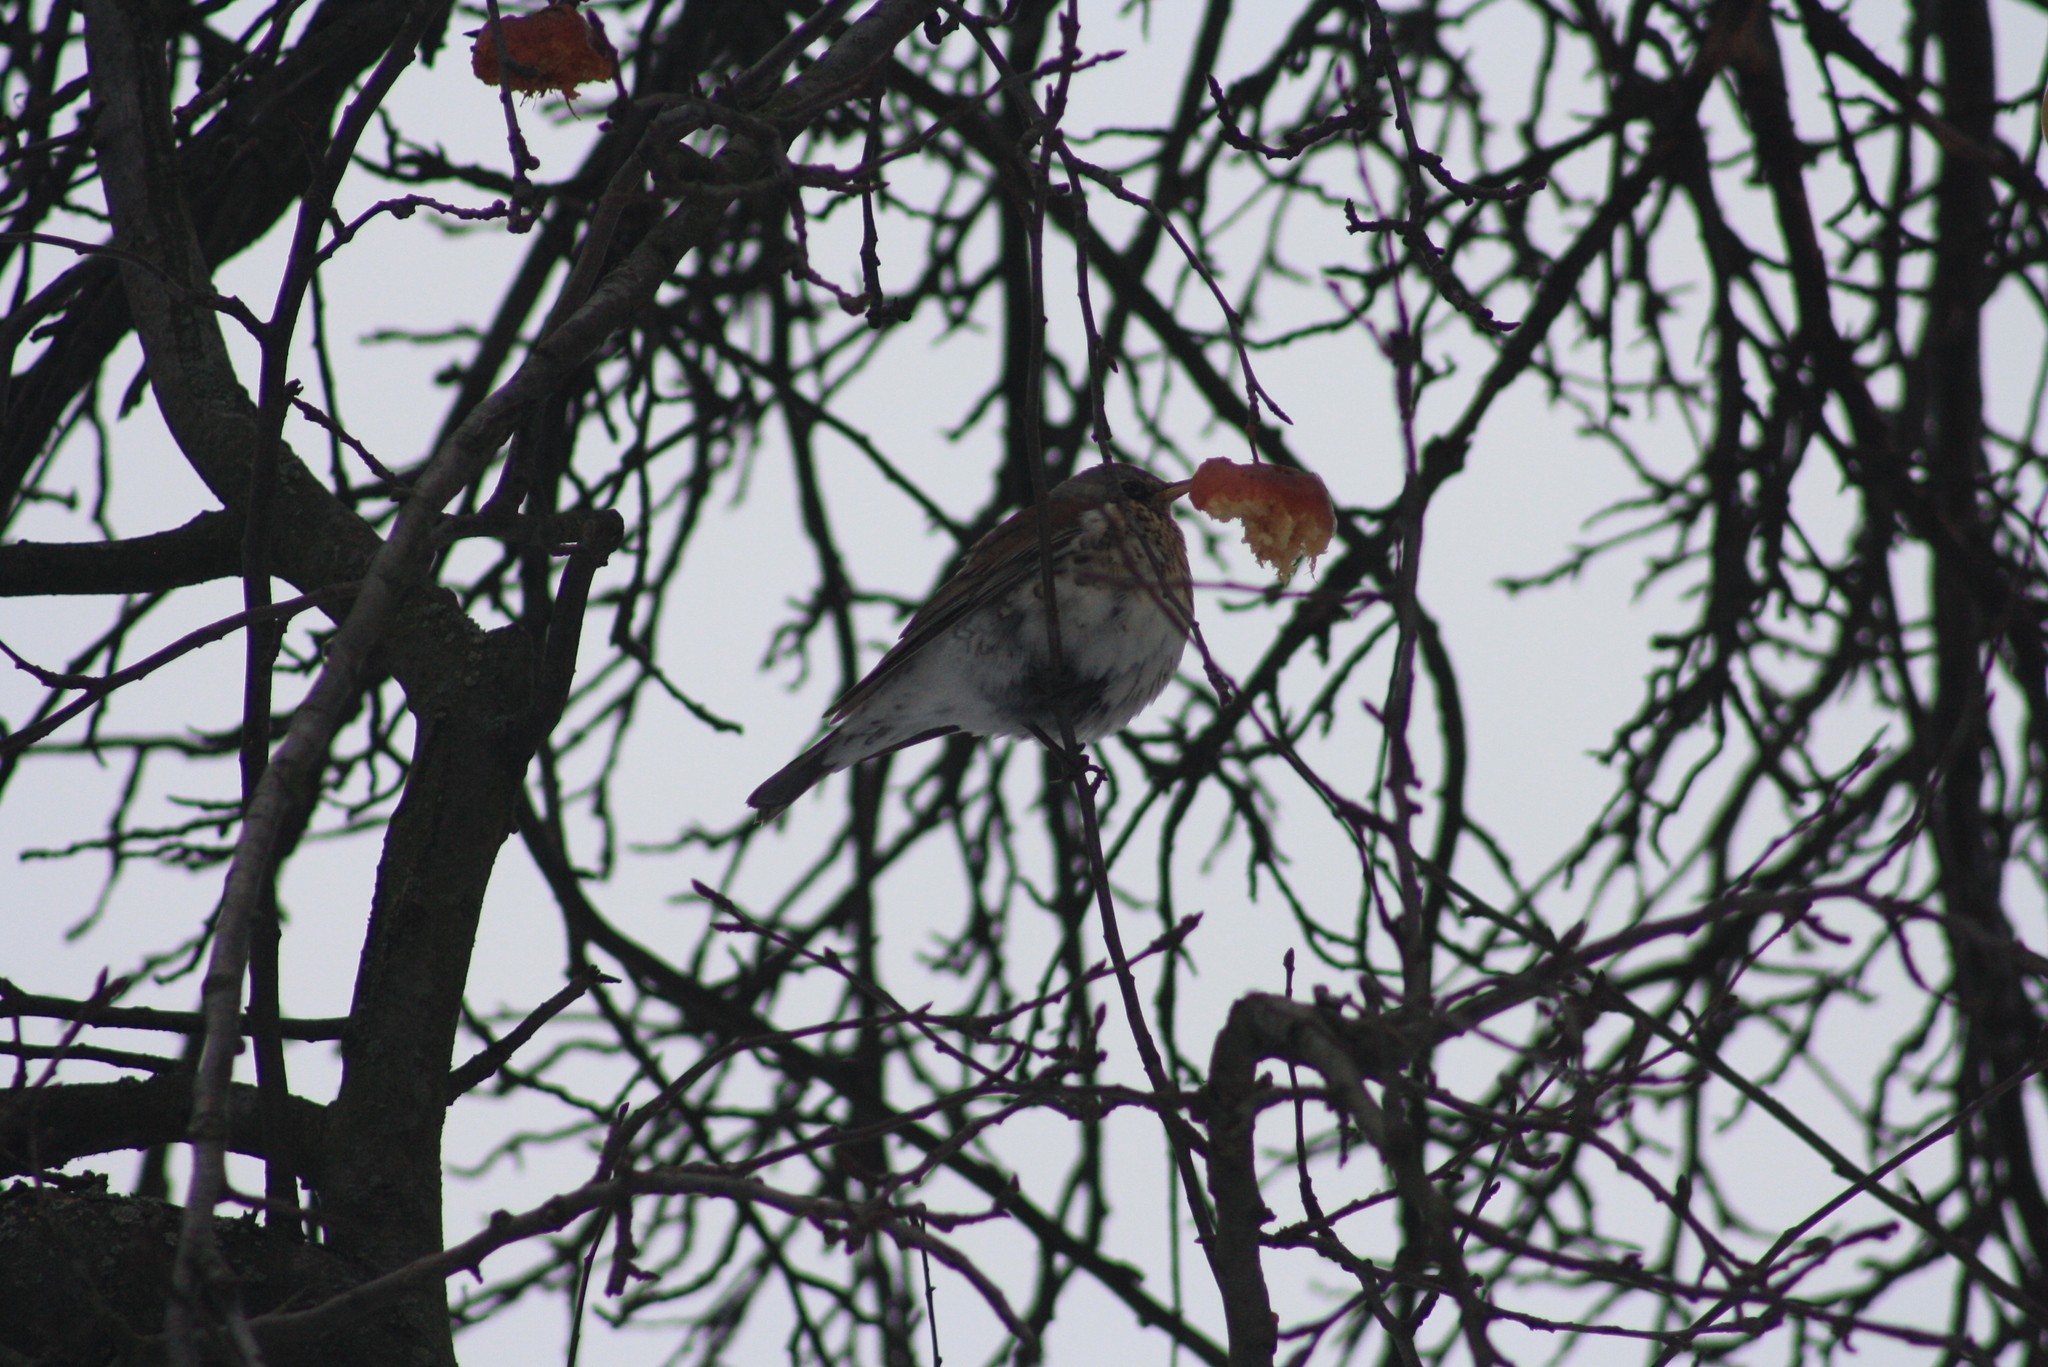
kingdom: Animalia
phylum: Chordata
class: Aves
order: Passeriformes
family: Turdidae
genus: Turdus
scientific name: Turdus pilaris
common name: Fieldfare
